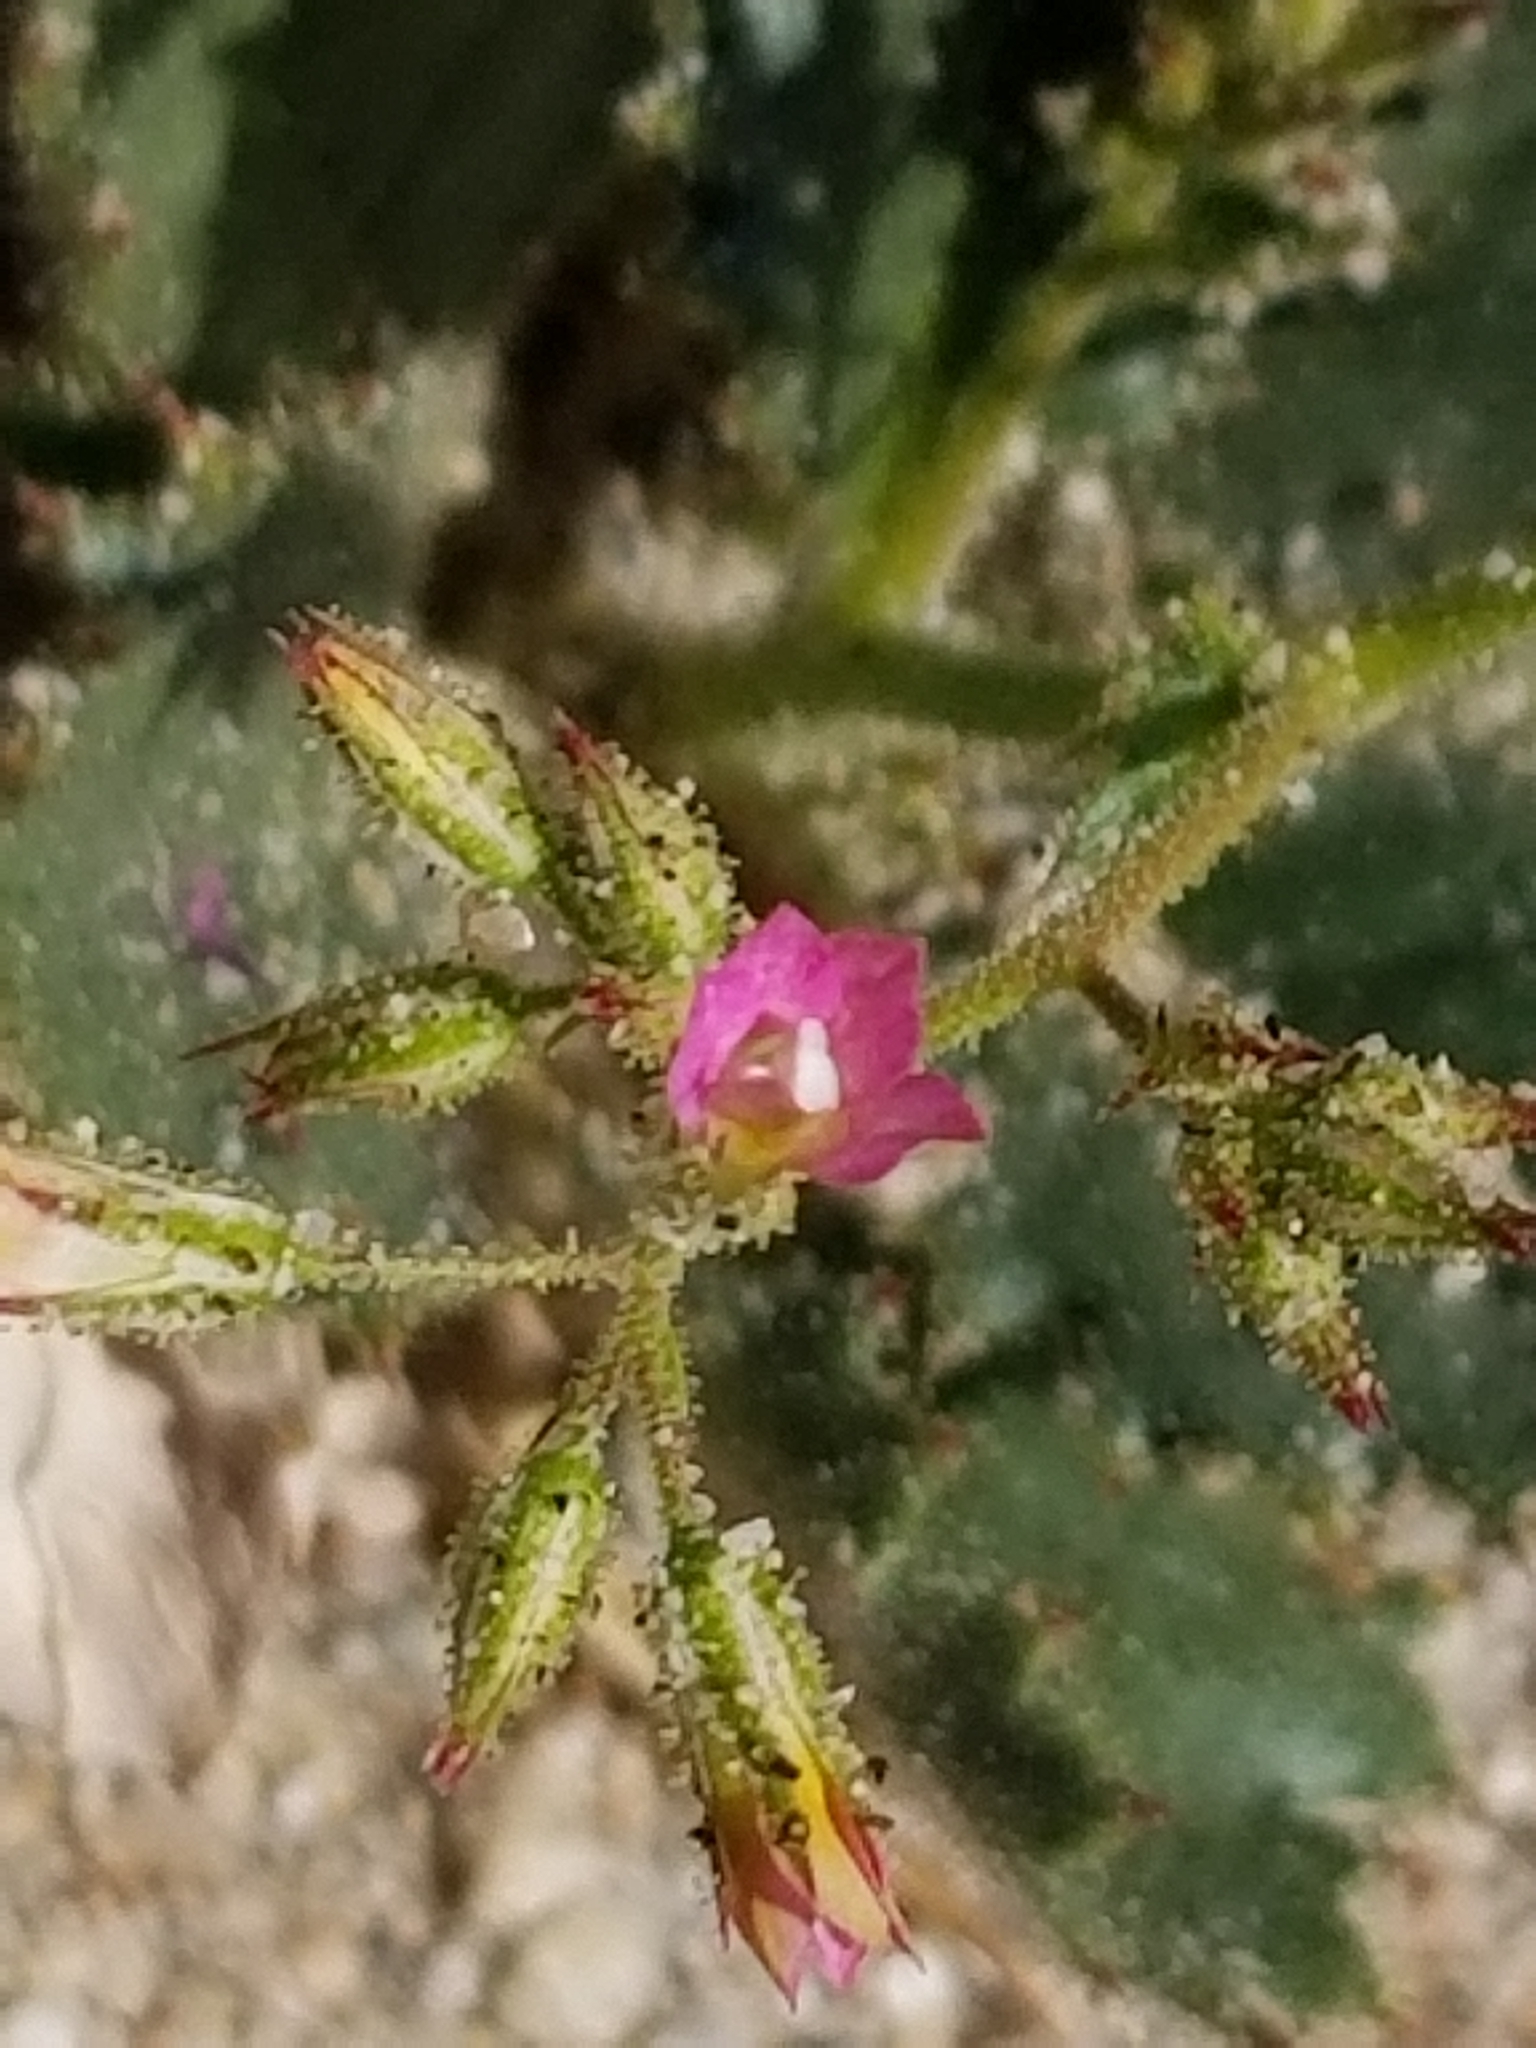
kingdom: Plantae
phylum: Tracheophyta
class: Magnoliopsida
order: Ericales
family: Polemoniaceae
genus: Aliciella
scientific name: Aliciella latifolia
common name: Broad-leaf gilia
